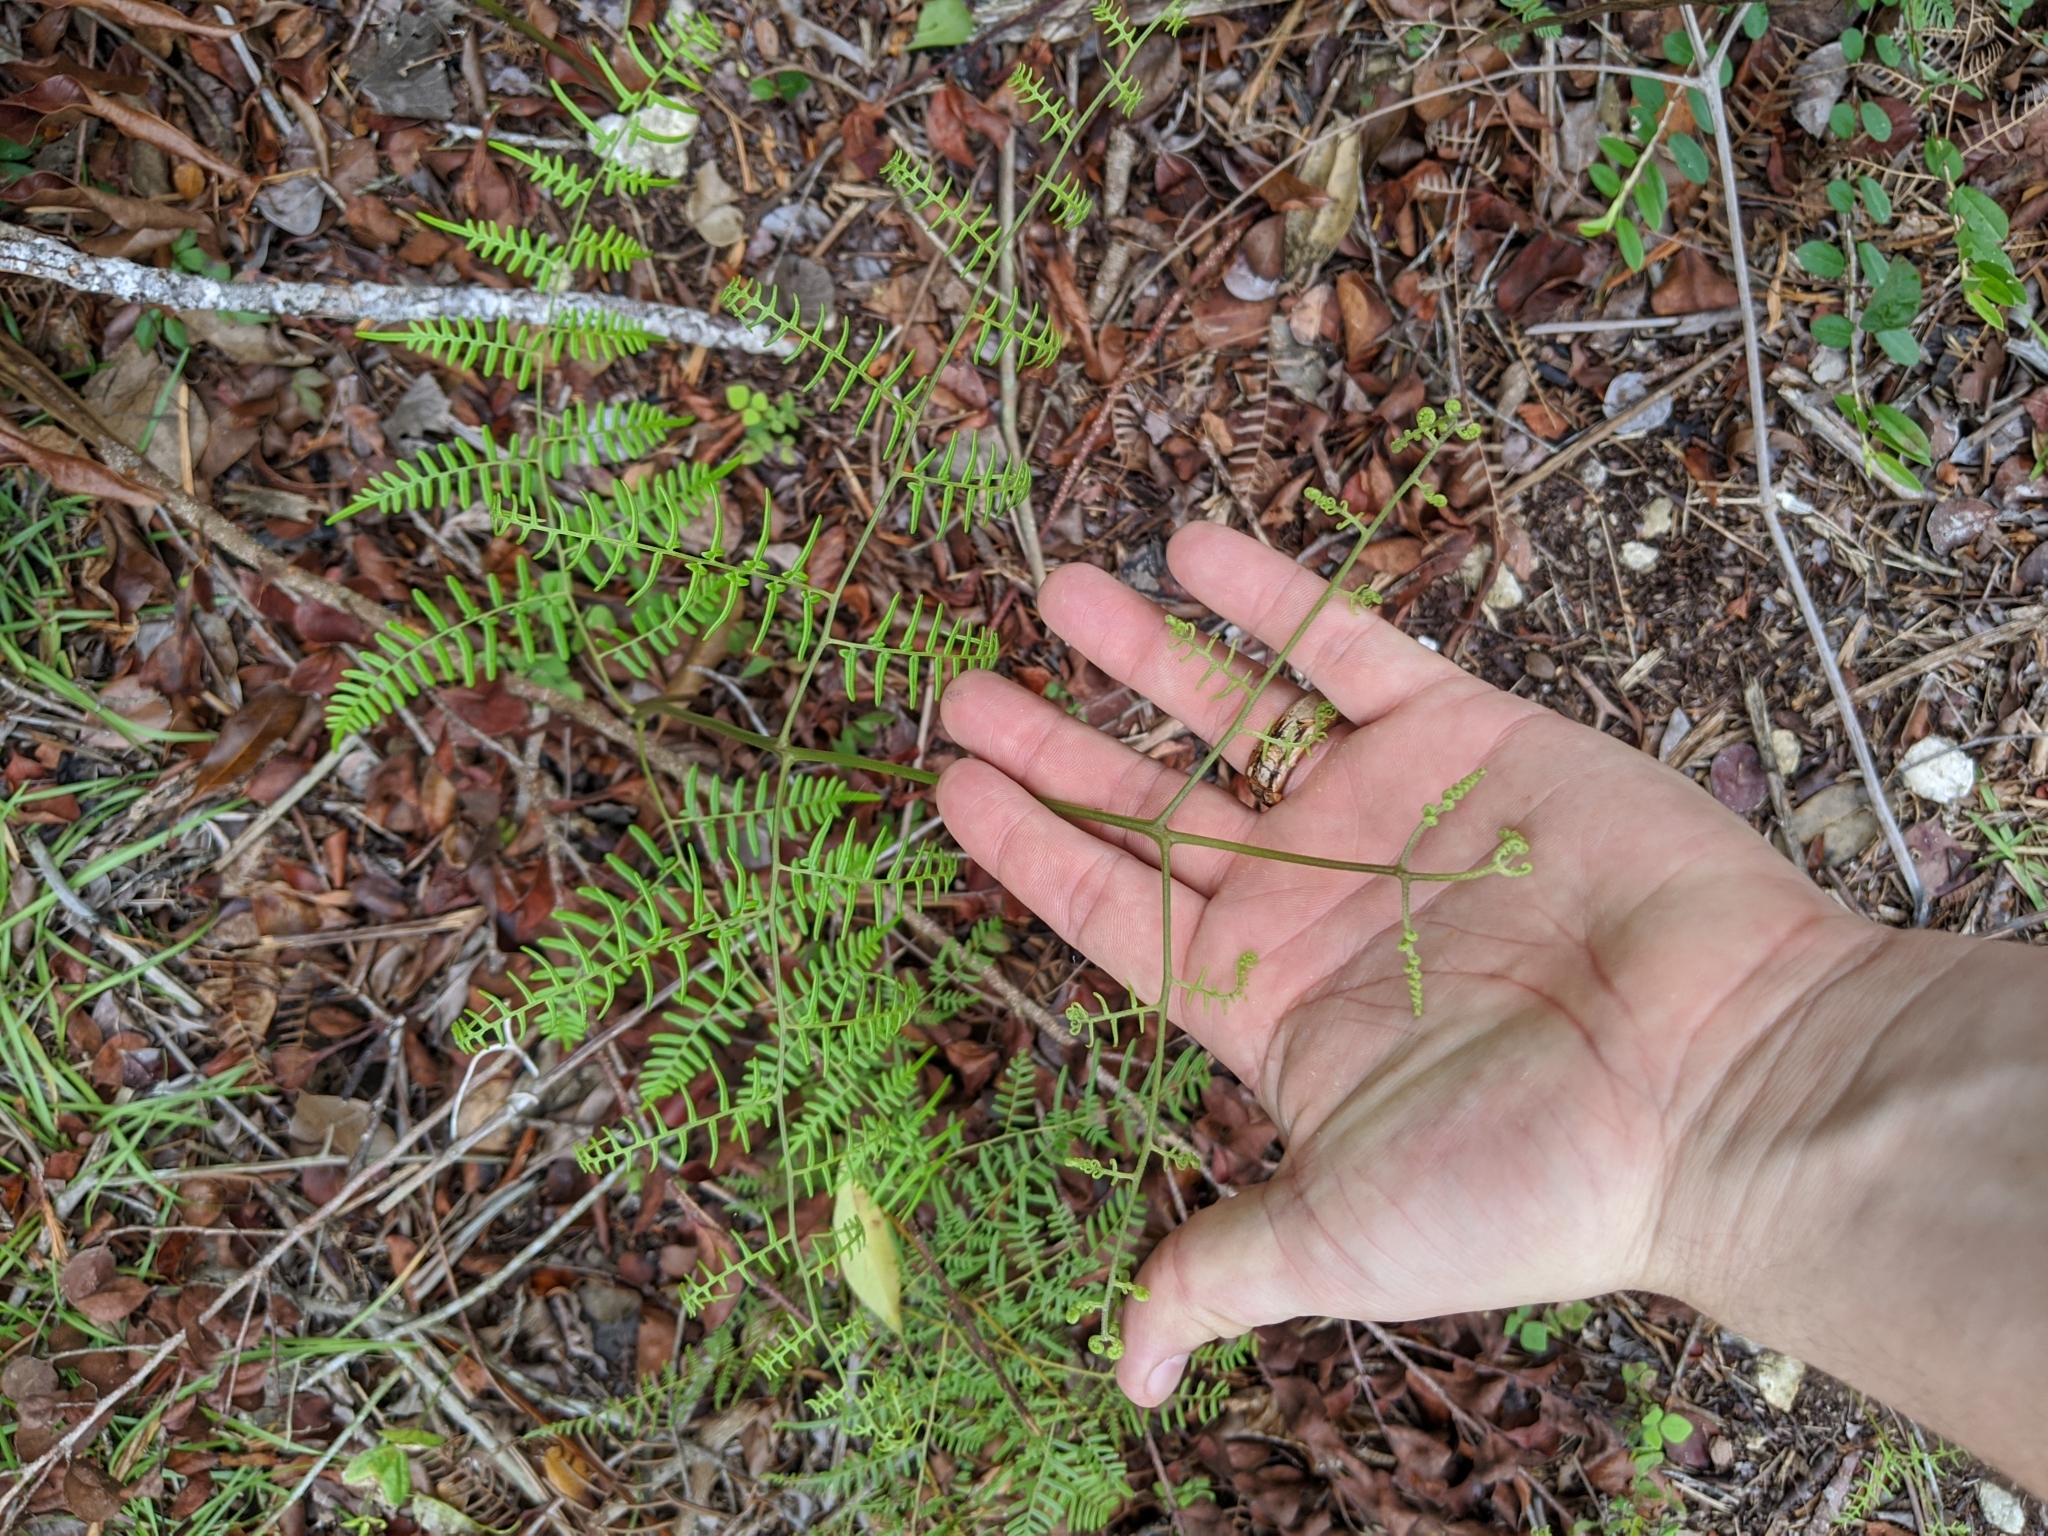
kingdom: Plantae
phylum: Tracheophyta
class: Polypodiopsida
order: Polypodiales
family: Dennstaedtiaceae
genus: Pteridium
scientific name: Pteridium caudatum
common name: Southern bracken fern
